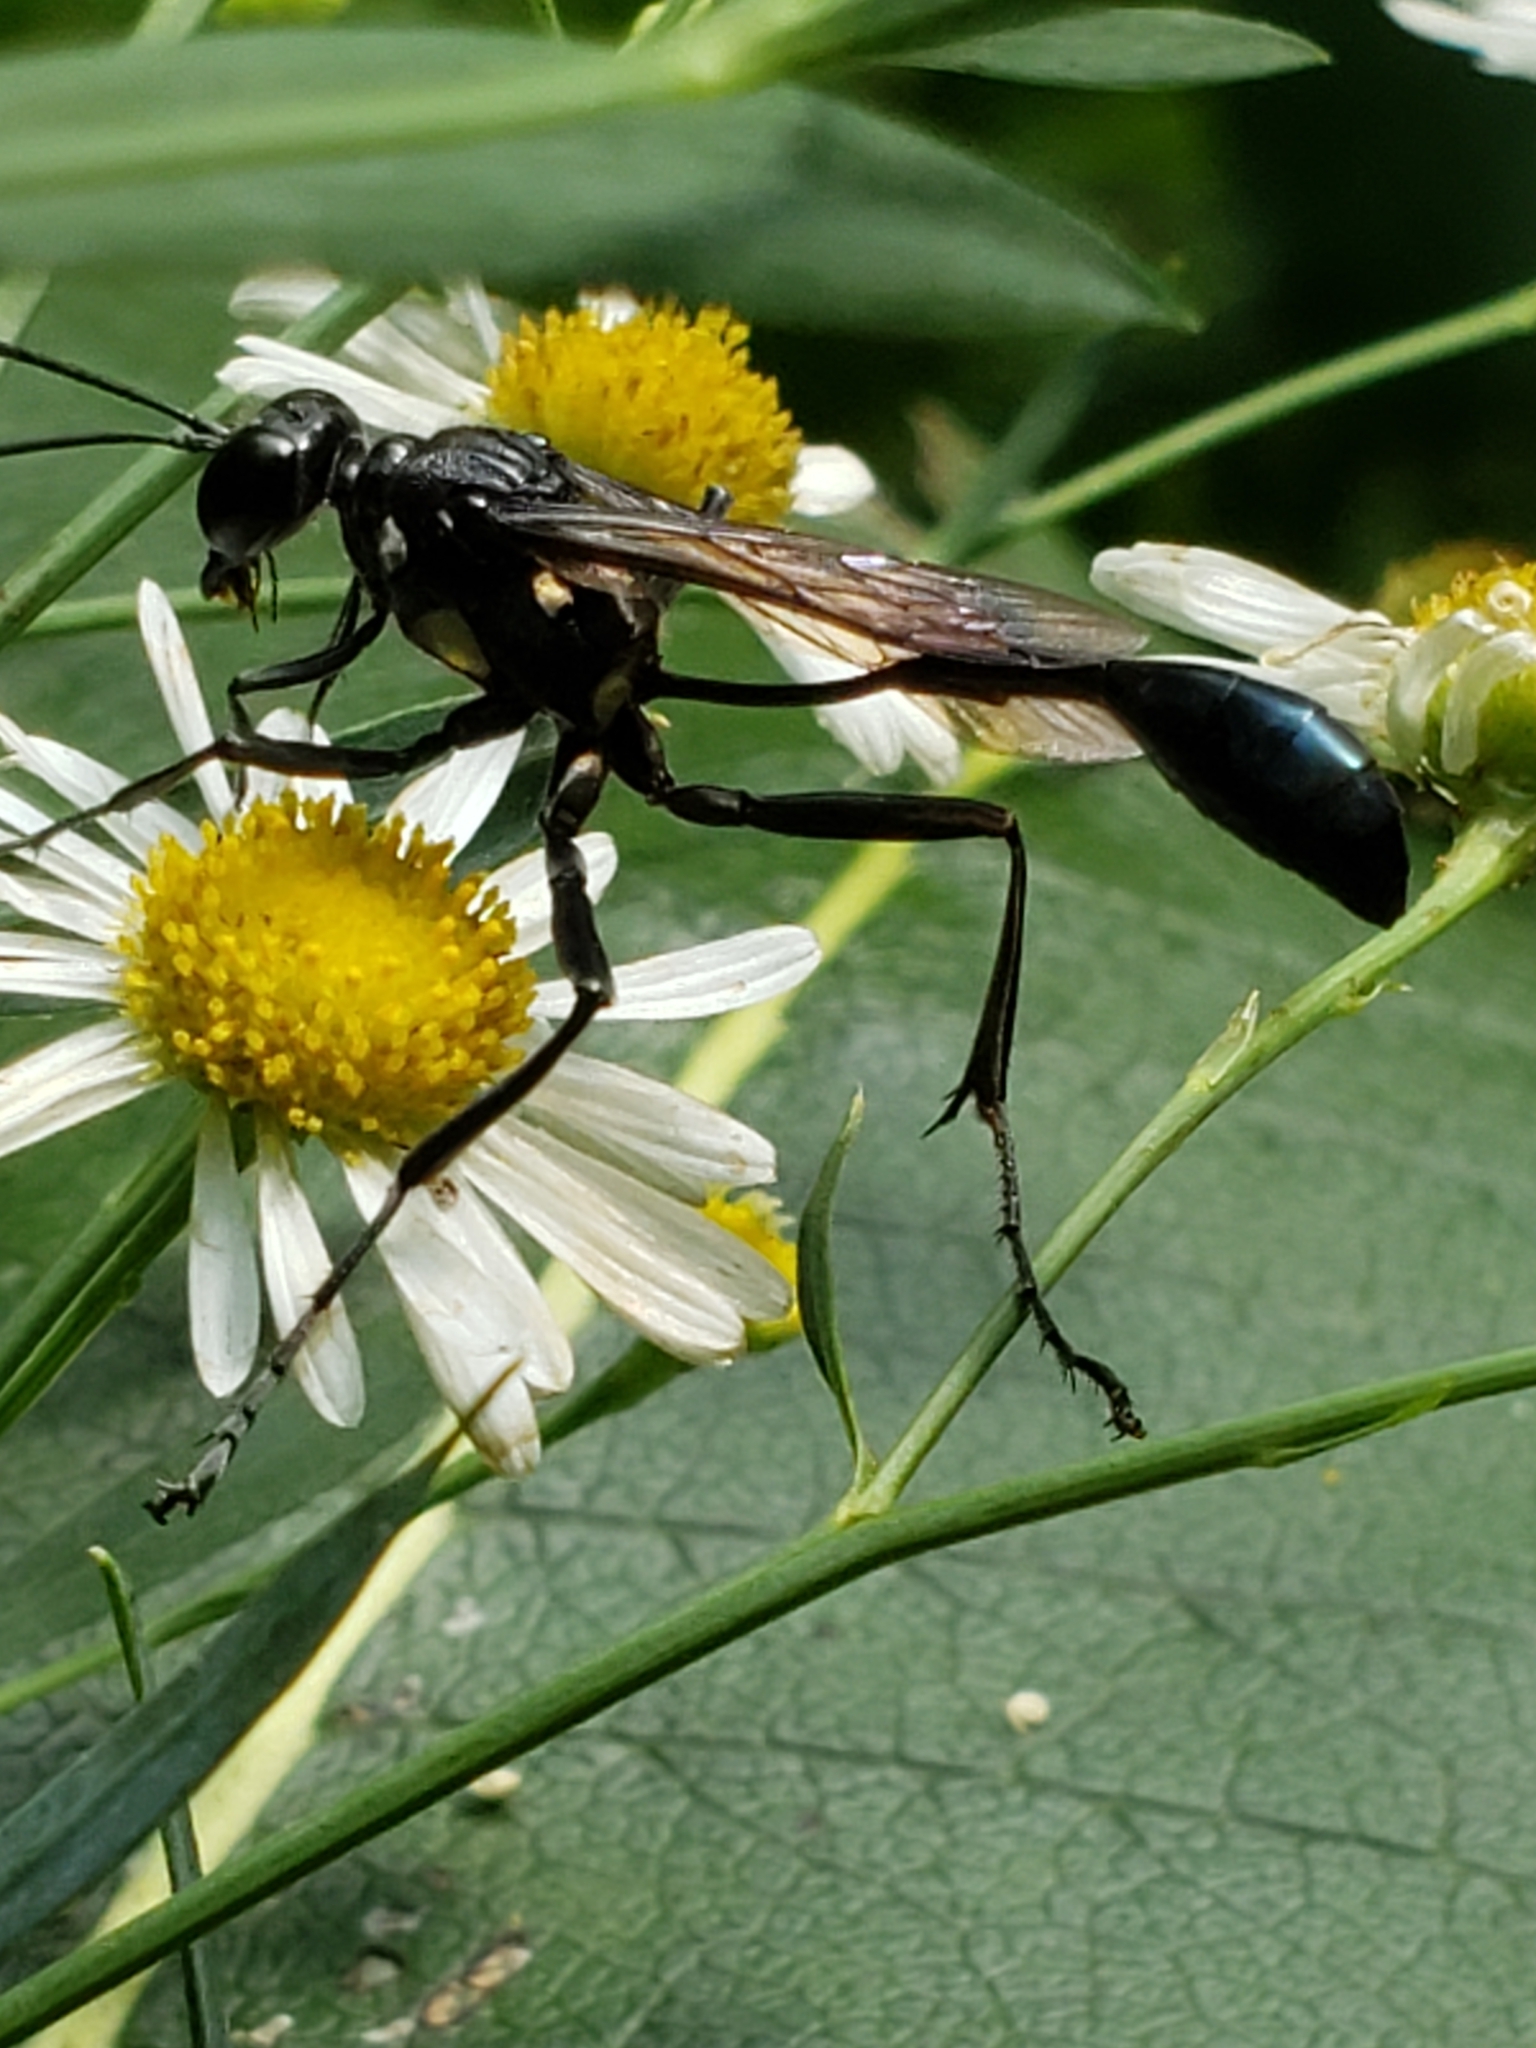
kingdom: Animalia
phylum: Arthropoda
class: Insecta
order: Hymenoptera
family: Sphecidae
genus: Eremnophila
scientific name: Eremnophila aureonotata
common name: Gold-marked thread-waisted wasp
